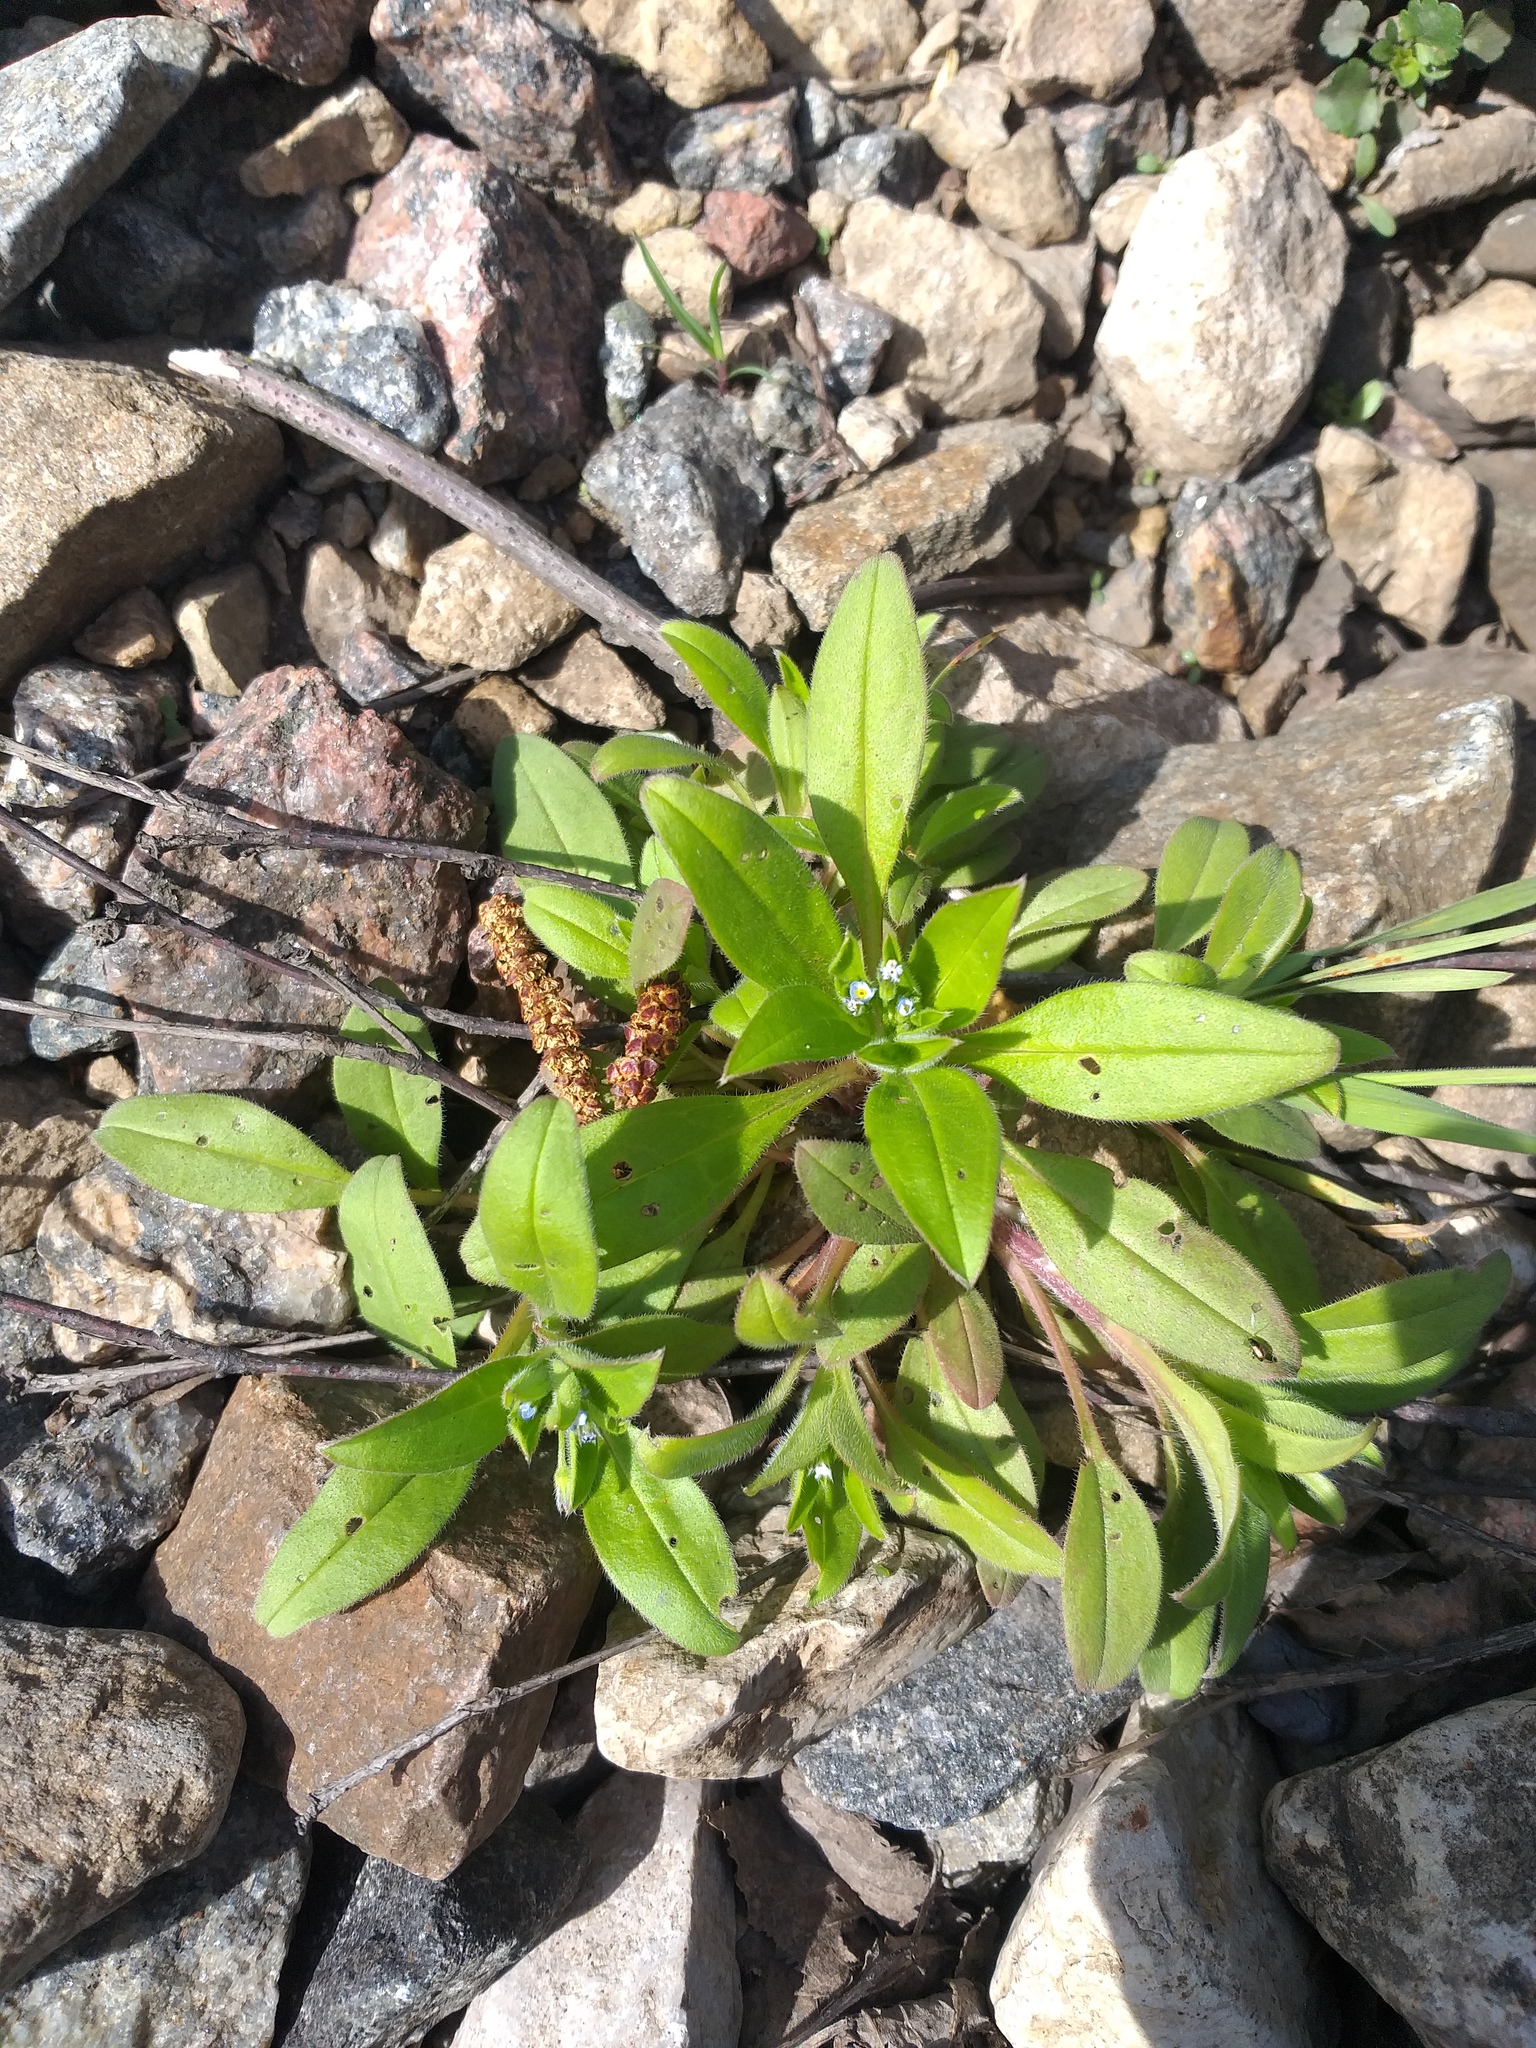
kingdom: Plantae
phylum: Tracheophyta
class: Magnoliopsida
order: Boraginales
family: Boraginaceae
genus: Myosotis
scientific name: Myosotis sparsiflora
